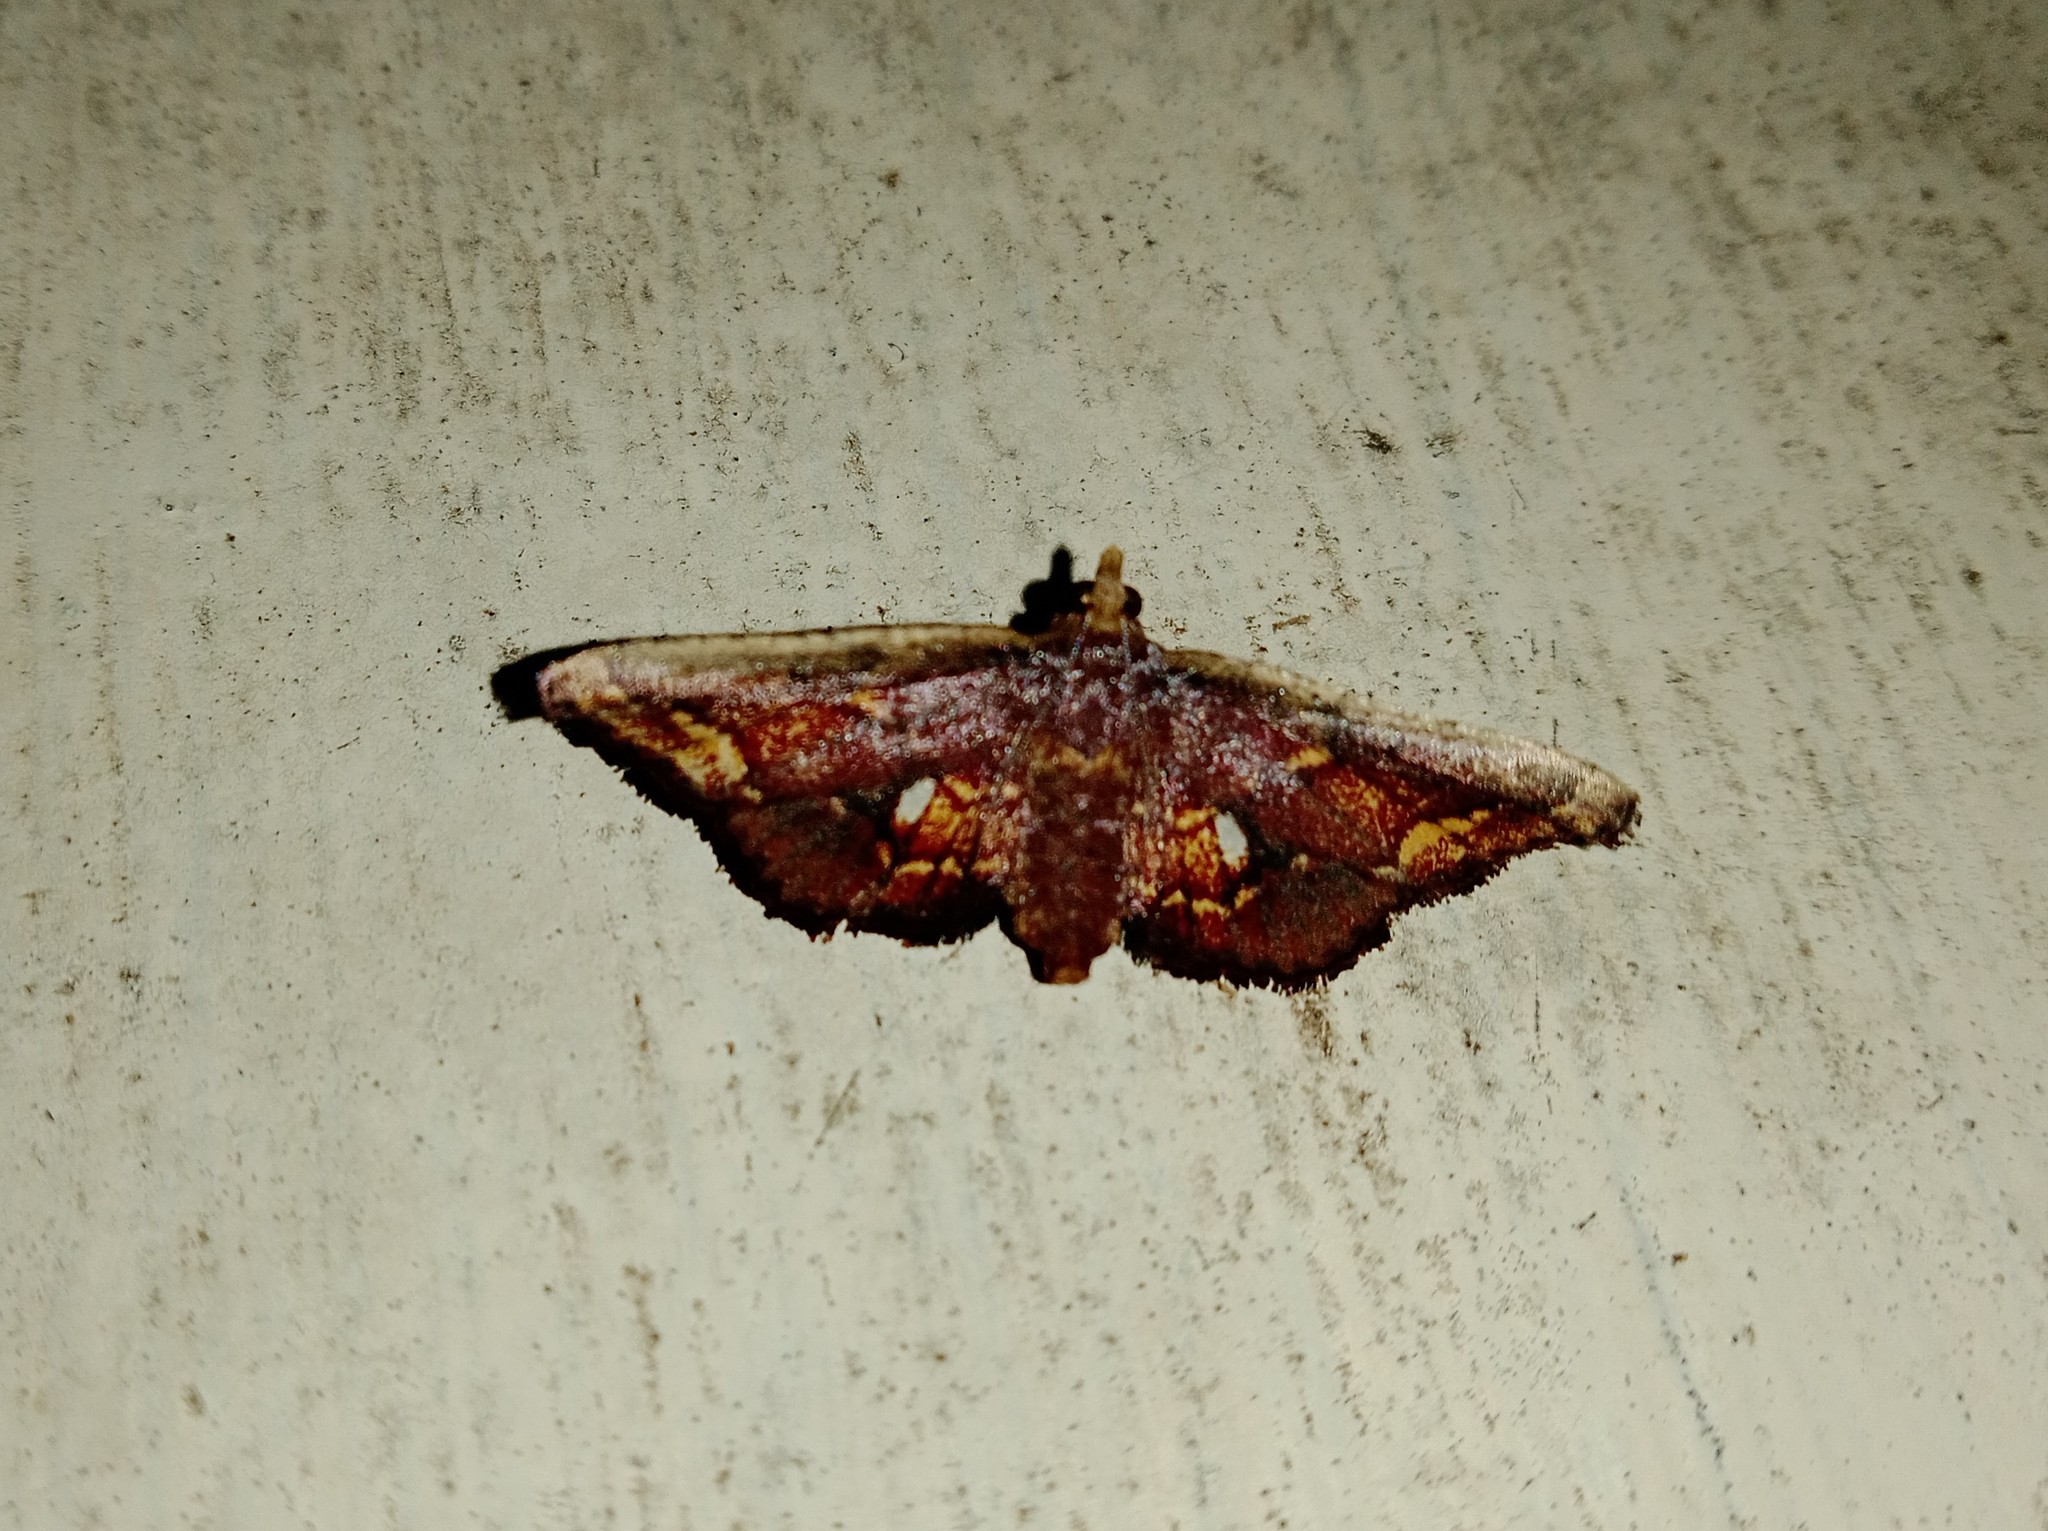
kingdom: Animalia
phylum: Arthropoda
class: Insecta
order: Lepidoptera
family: Pyralidae
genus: Zitha
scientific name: Zitha
